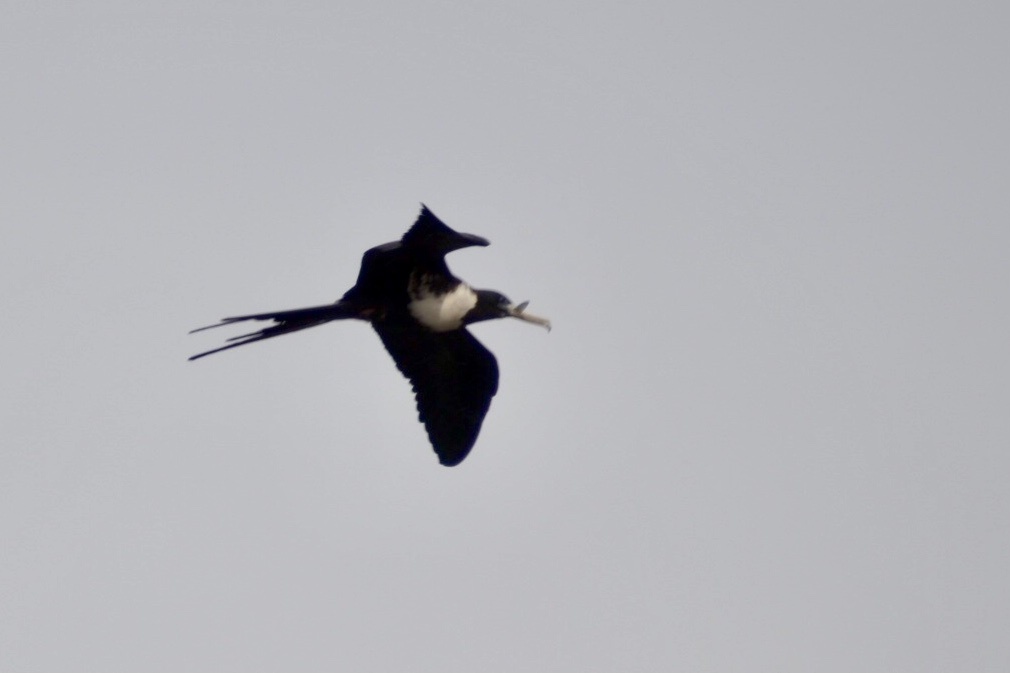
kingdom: Animalia
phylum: Chordata
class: Aves
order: Suliformes
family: Fregatidae
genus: Fregata
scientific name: Fregata magnificens
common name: Magnificent frigatebird
